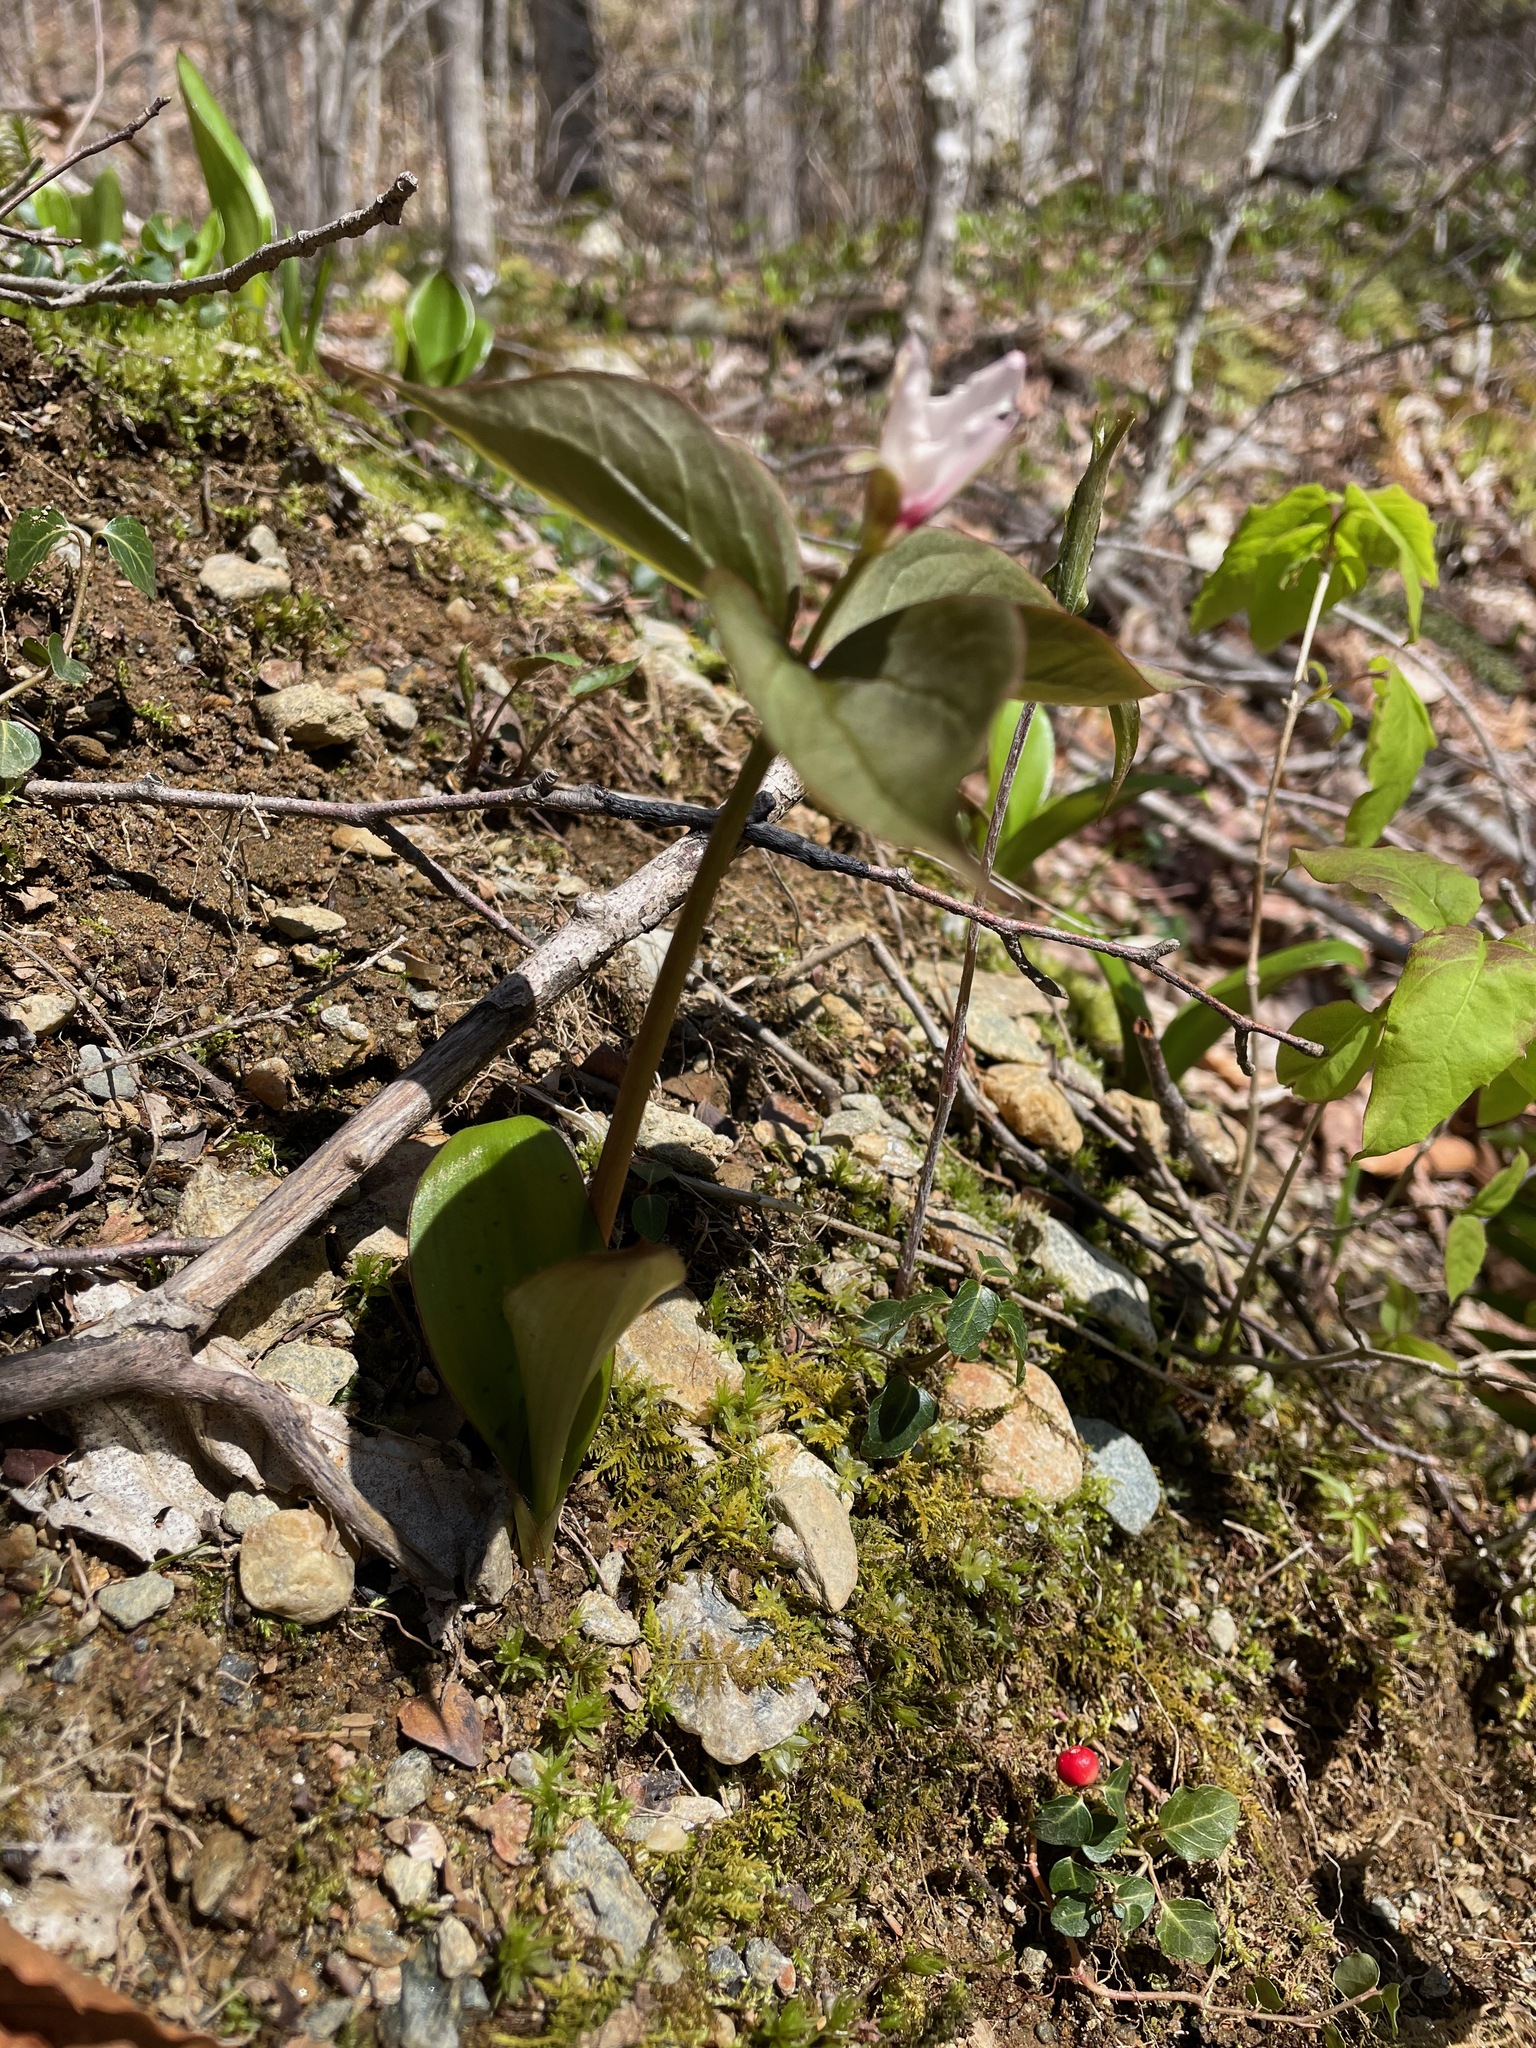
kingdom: Plantae
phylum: Tracheophyta
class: Liliopsida
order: Liliales
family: Melanthiaceae
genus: Trillium
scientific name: Trillium undulatum
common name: Paint trillium
